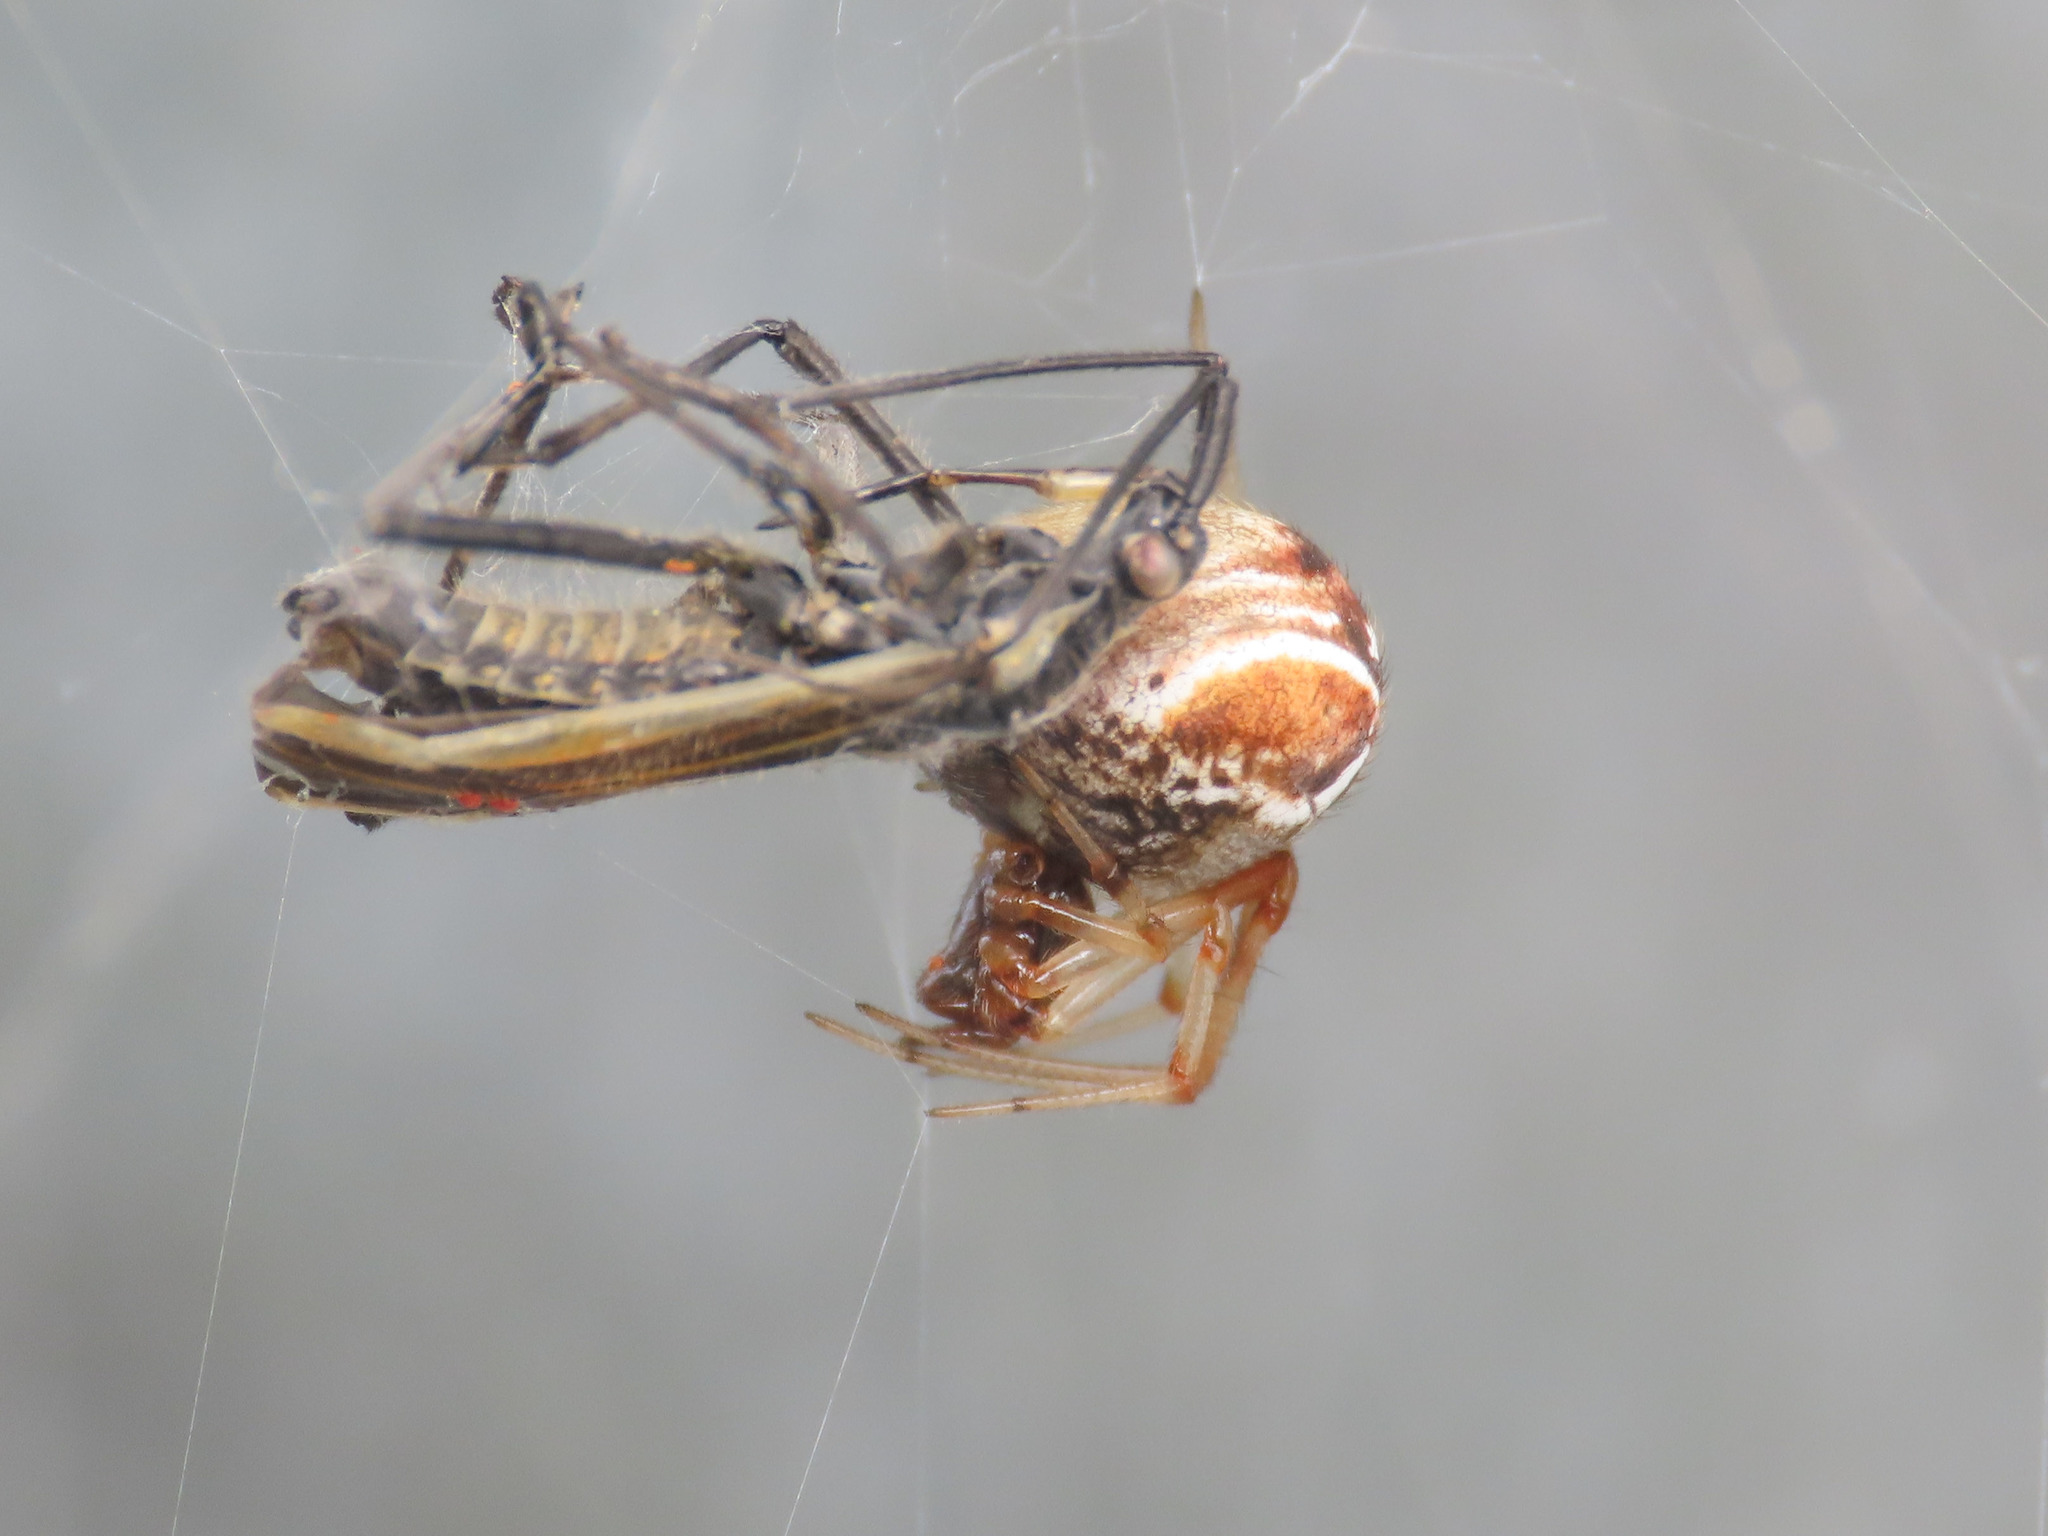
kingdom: Animalia
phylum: Arthropoda
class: Arachnida
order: Araneae
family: Theridiidae
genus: Parasteatoda
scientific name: Parasteatoda lunata
